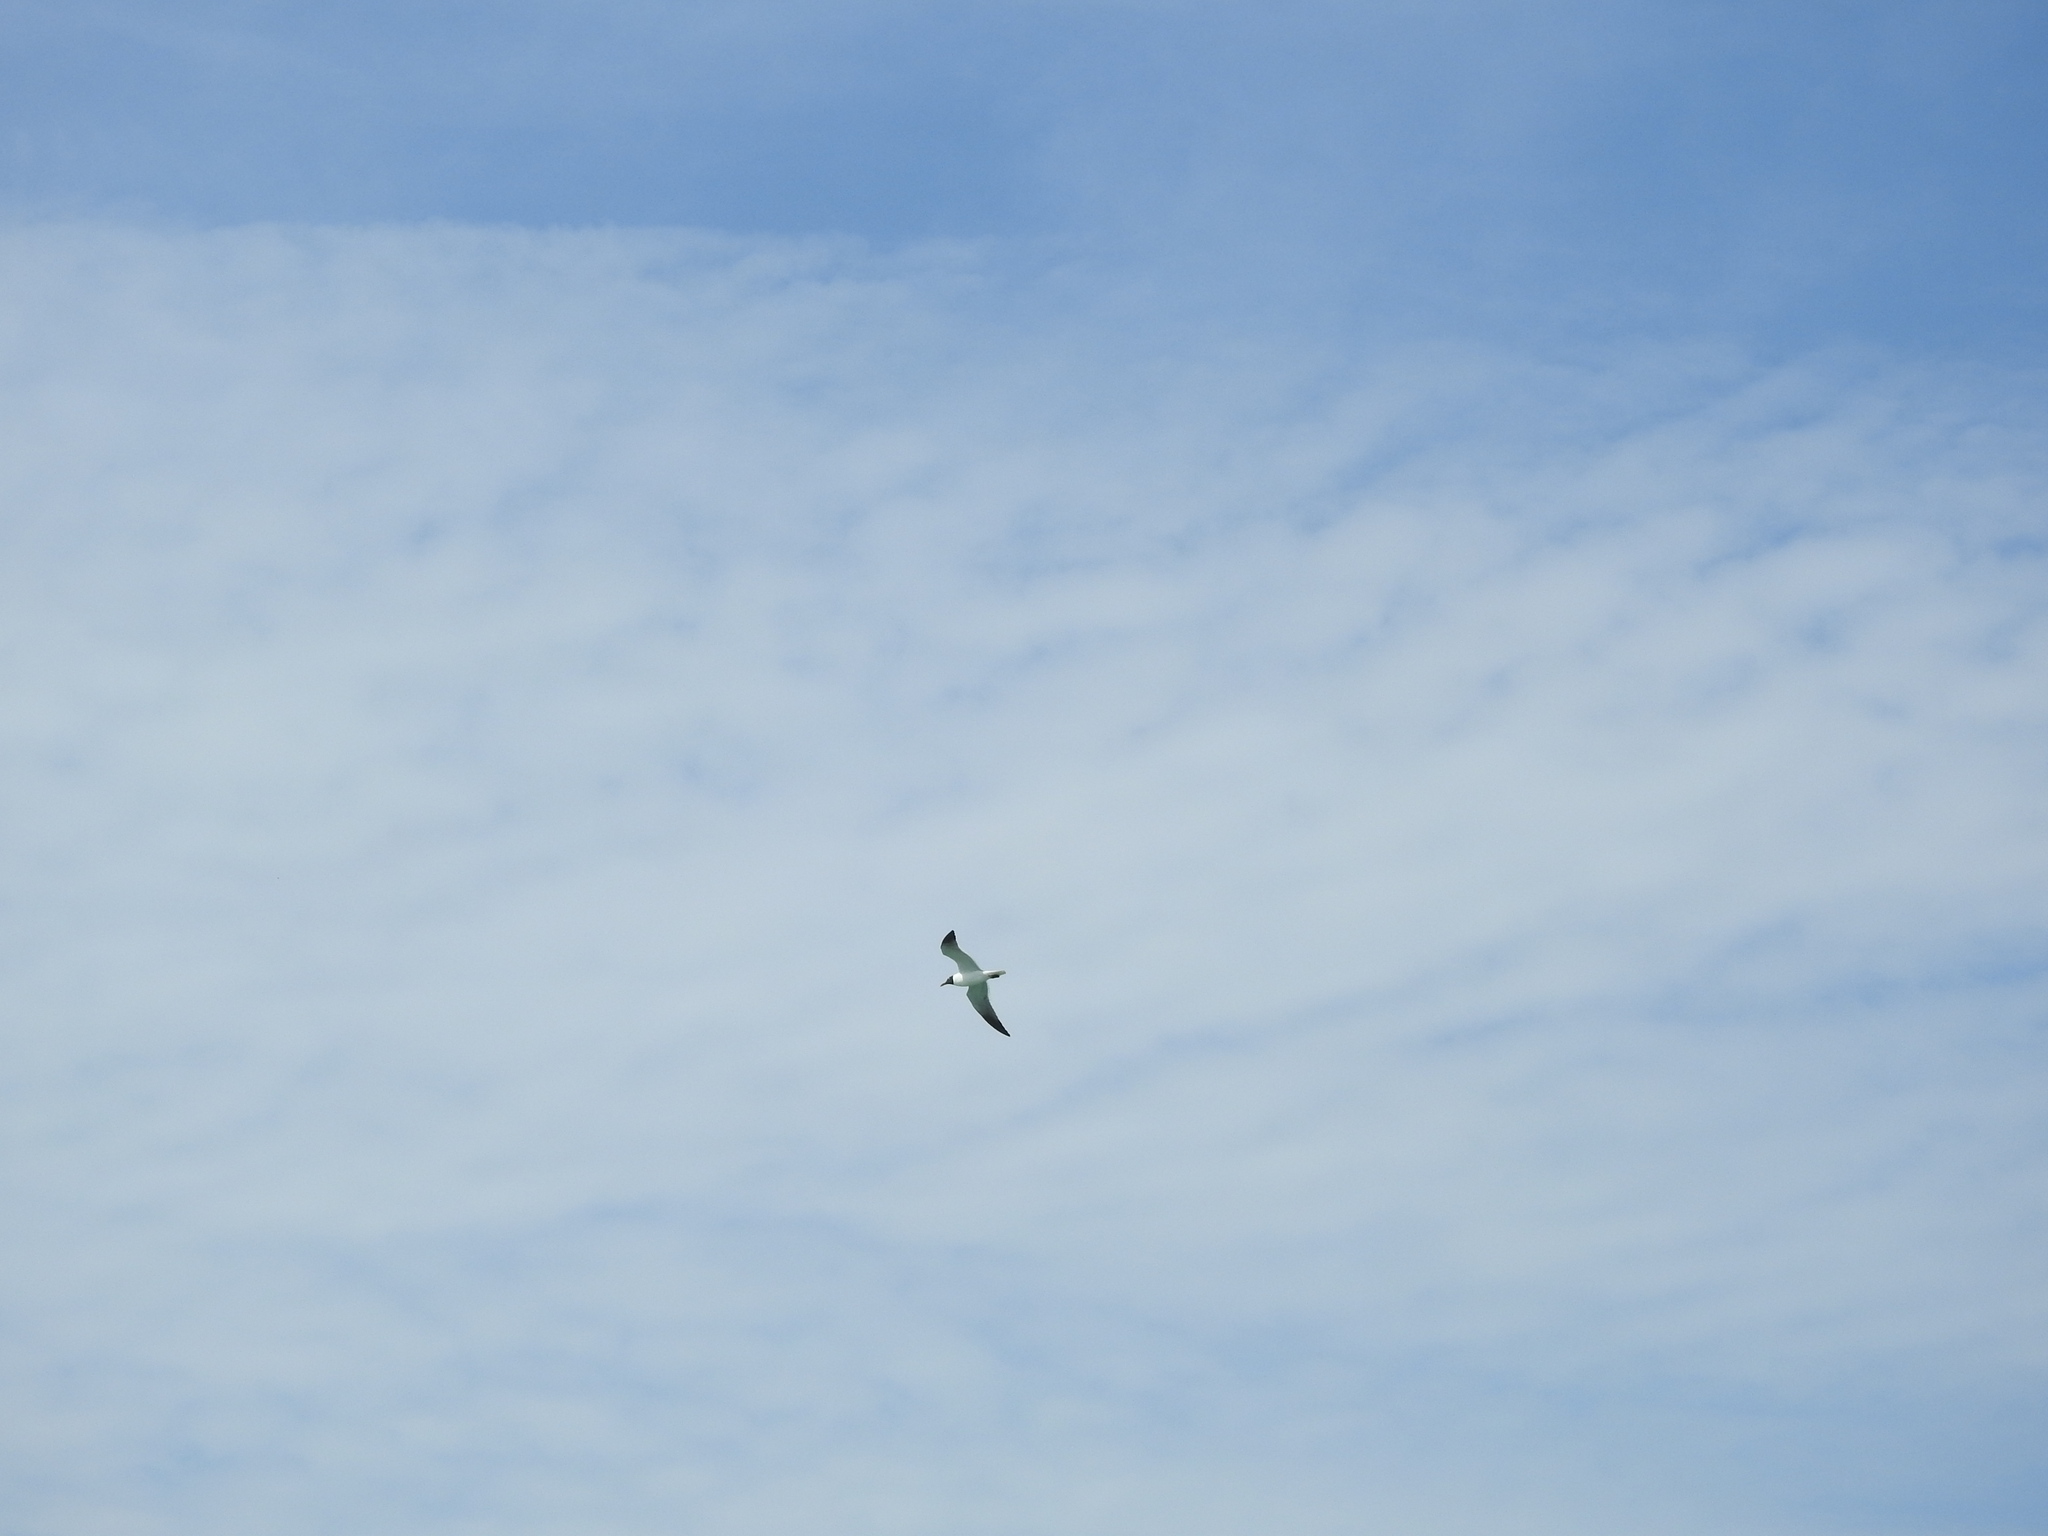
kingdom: Animalia
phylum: Chordata
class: Aves
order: Charadriiformes
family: Laridae
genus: Leucophaeus
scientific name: Leucophaeus atricilla
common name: Laughing gull
